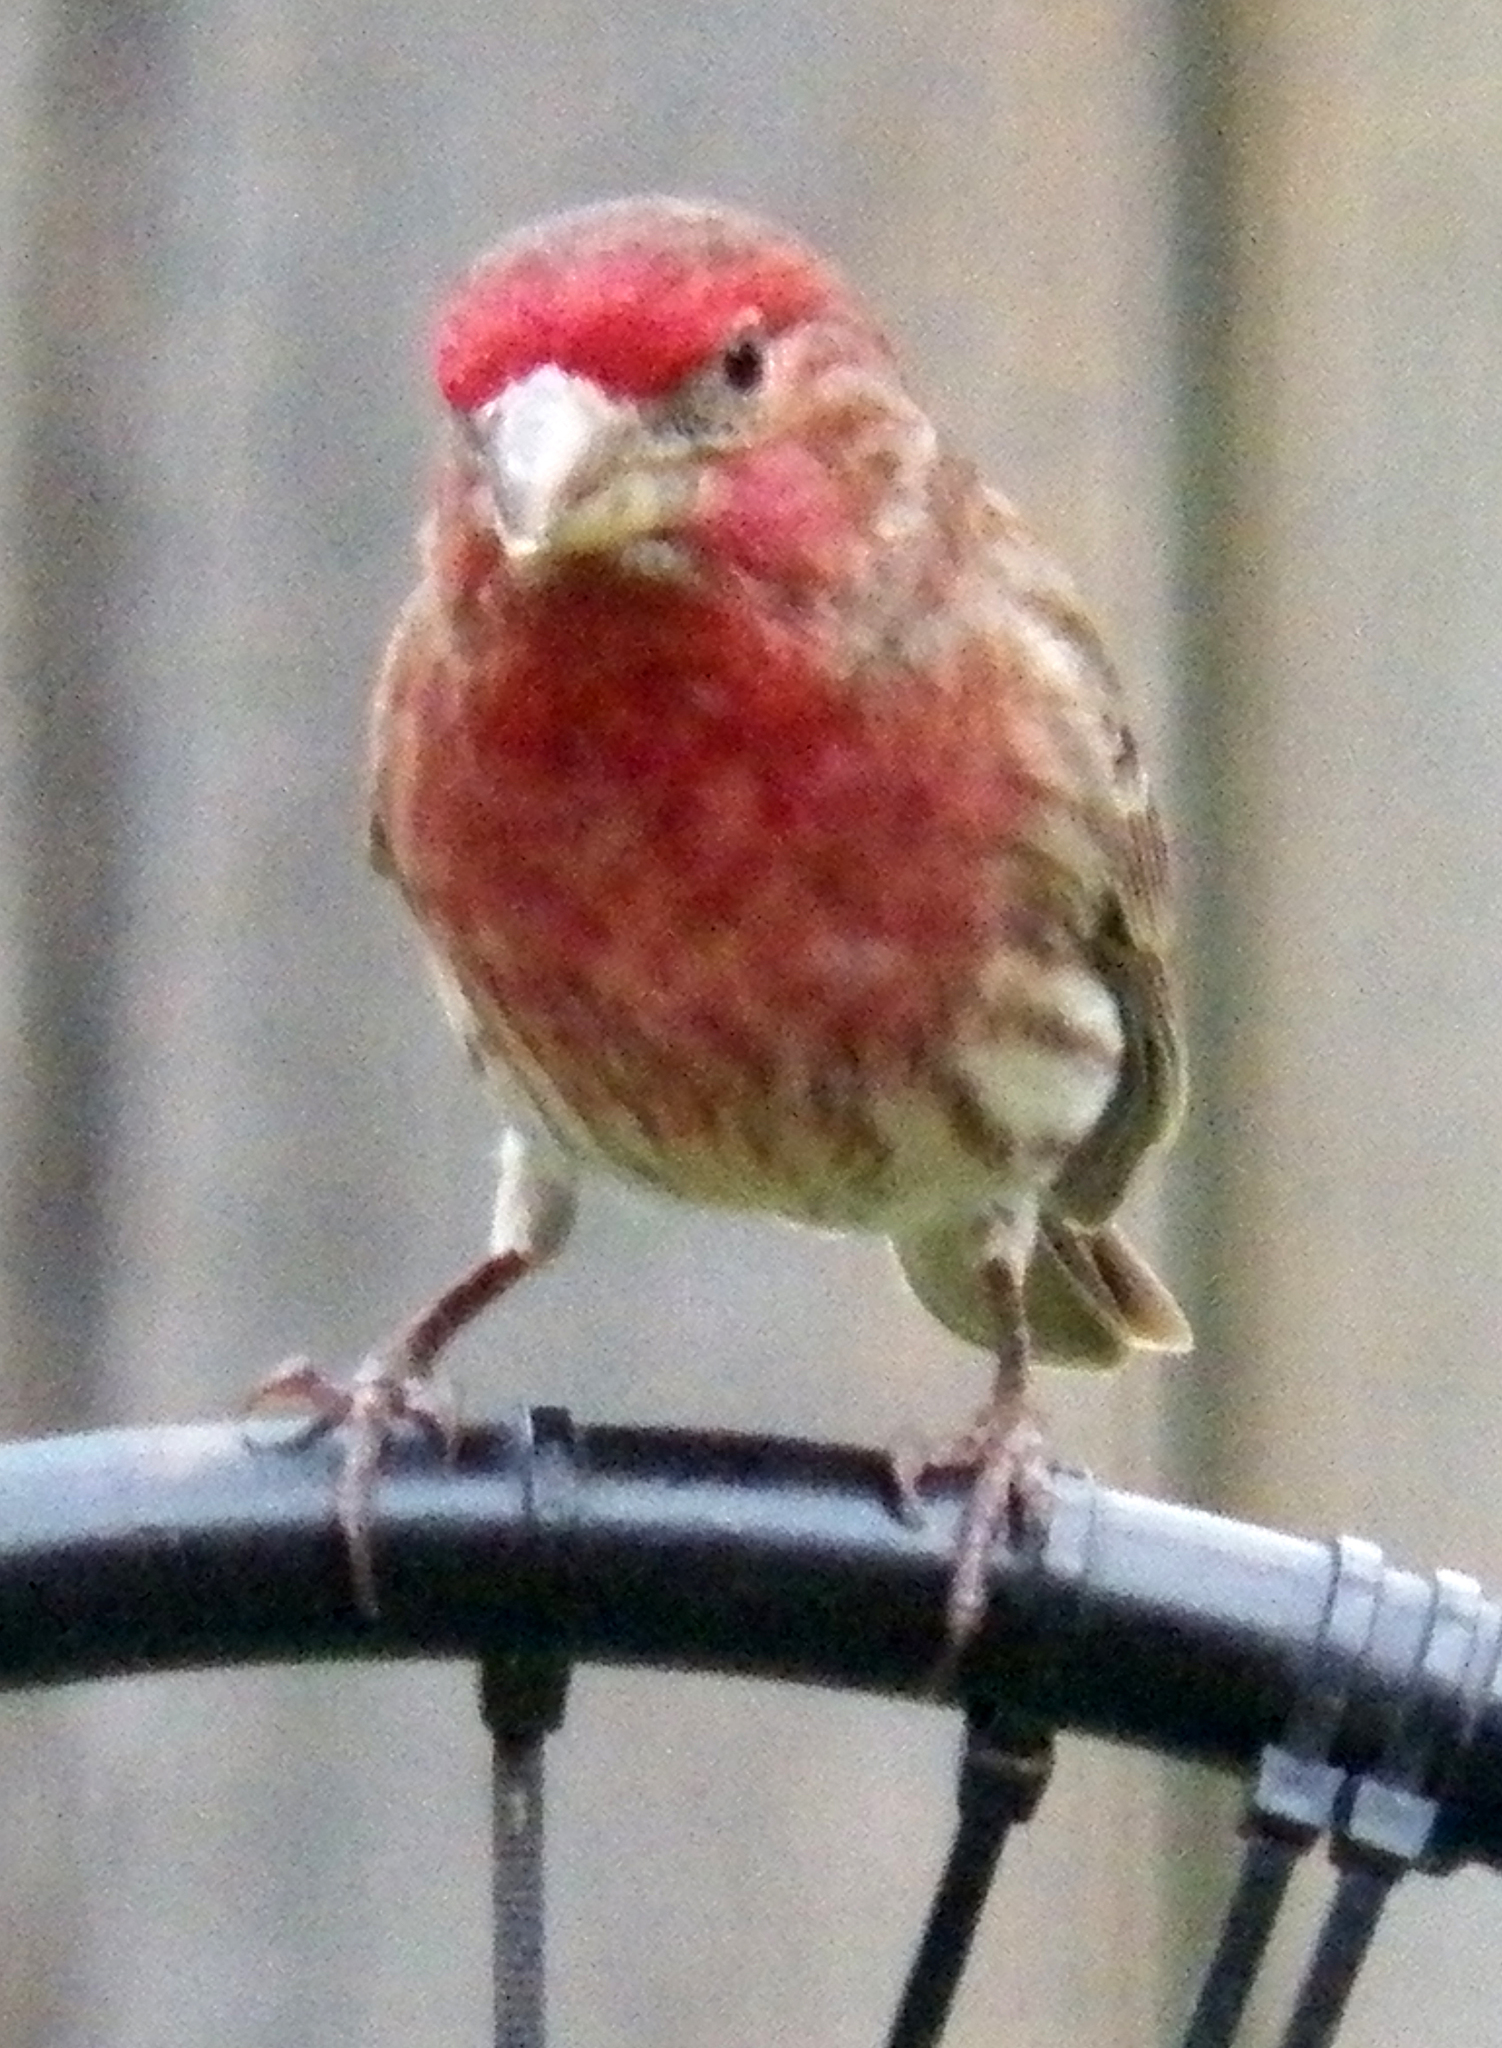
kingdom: Animalia
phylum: Chordata
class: Aves
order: Passeriformes
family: Fringillidae
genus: Haemorhous
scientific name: Haemorhous mexicanus
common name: House finch
